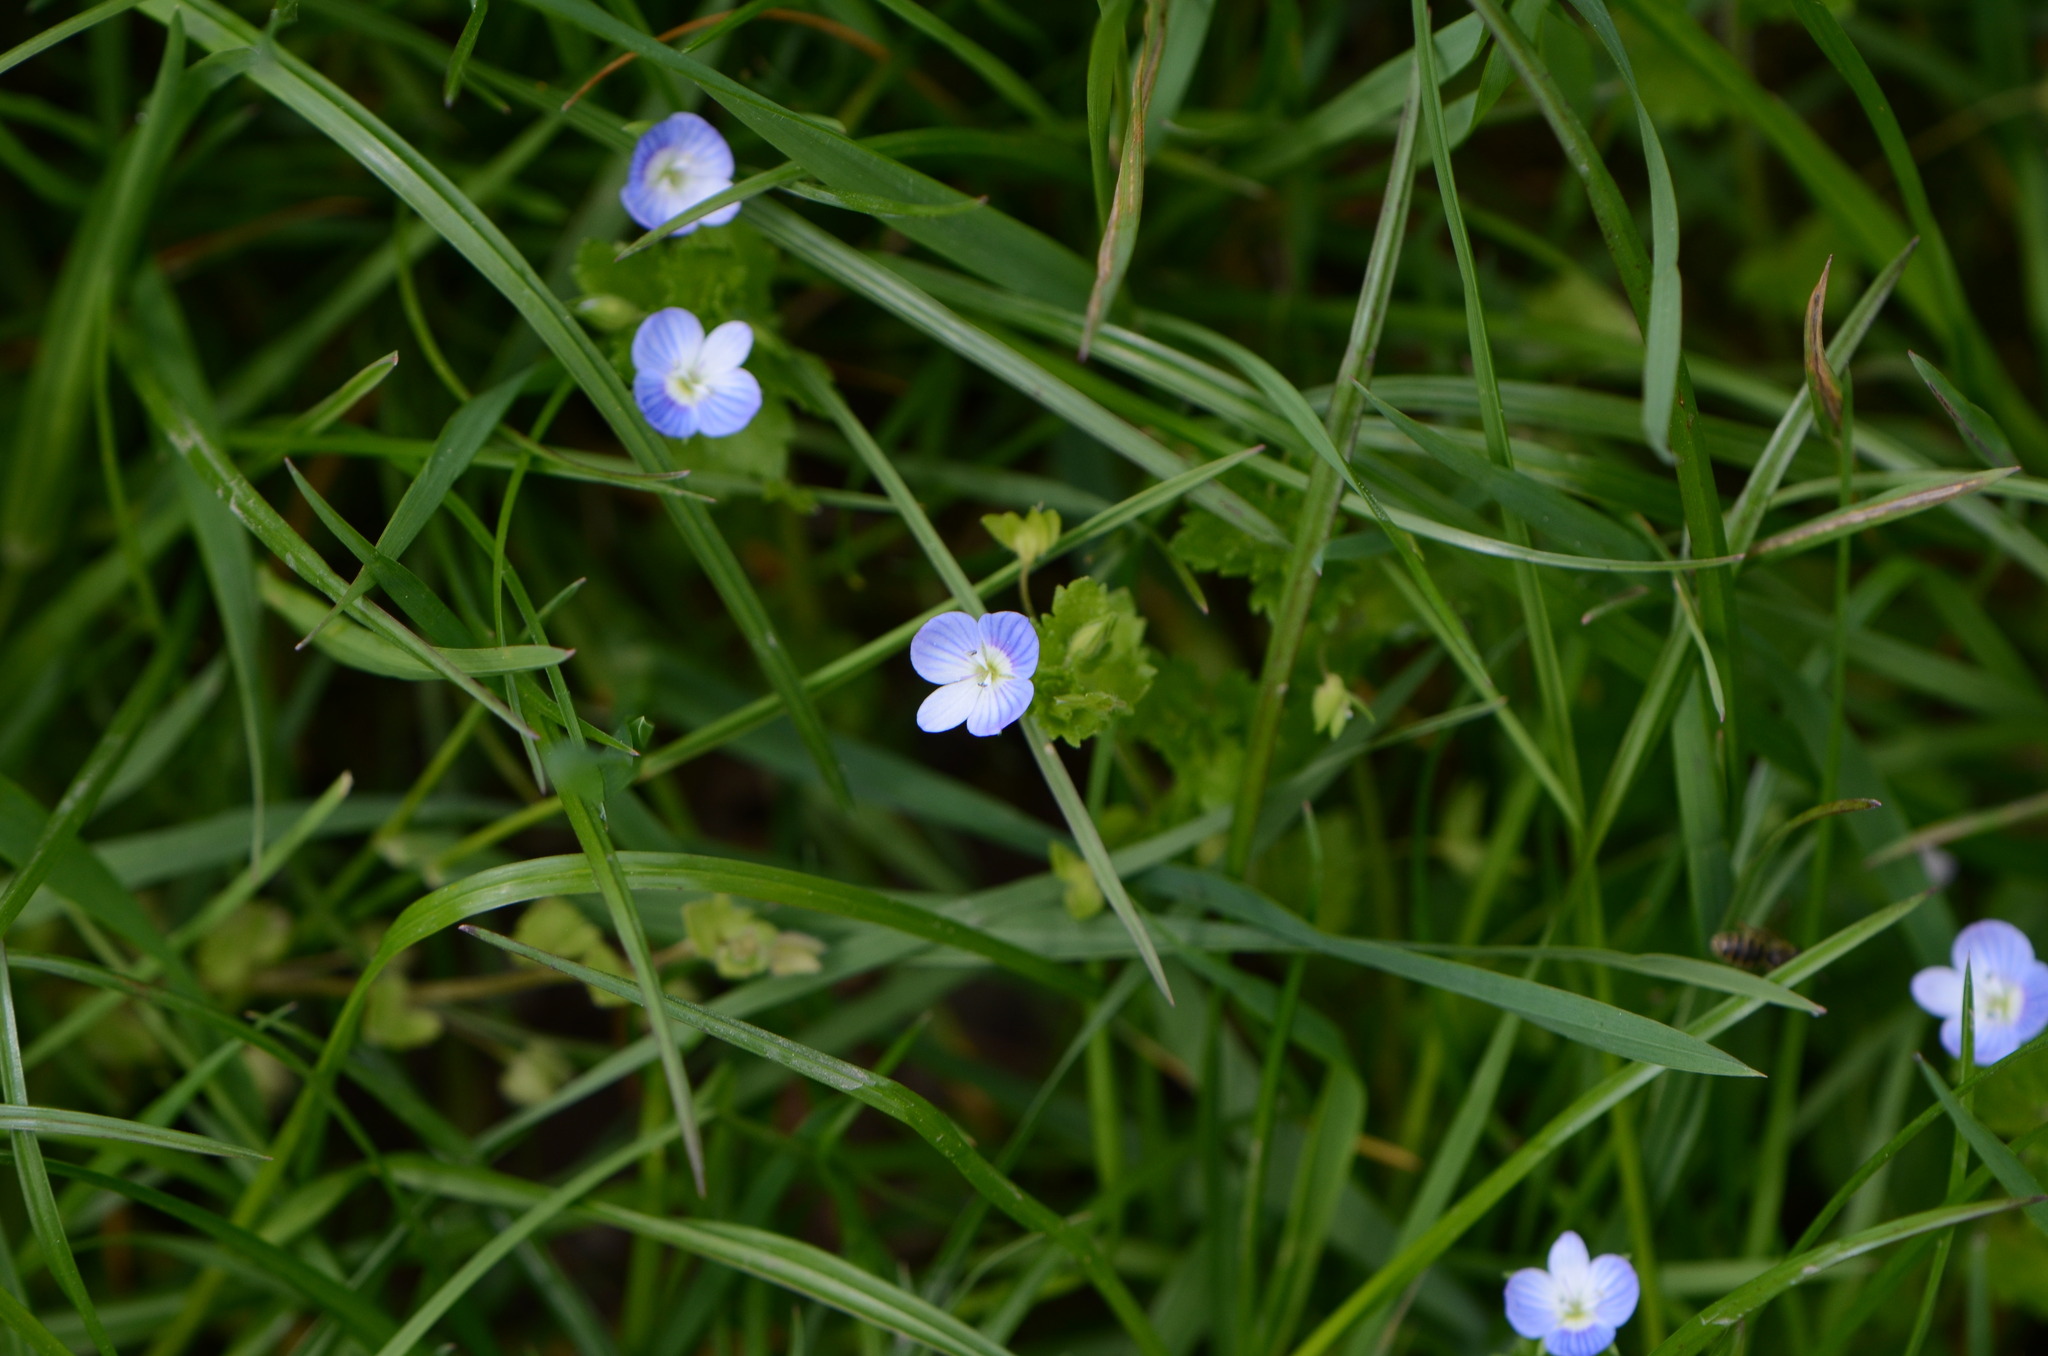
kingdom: Plantae
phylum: Tracheophyta
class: Magnoliopsida
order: Lamiales
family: Plantaginaceae
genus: Veronica
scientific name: Veronica persica
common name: Common field-speedwell
